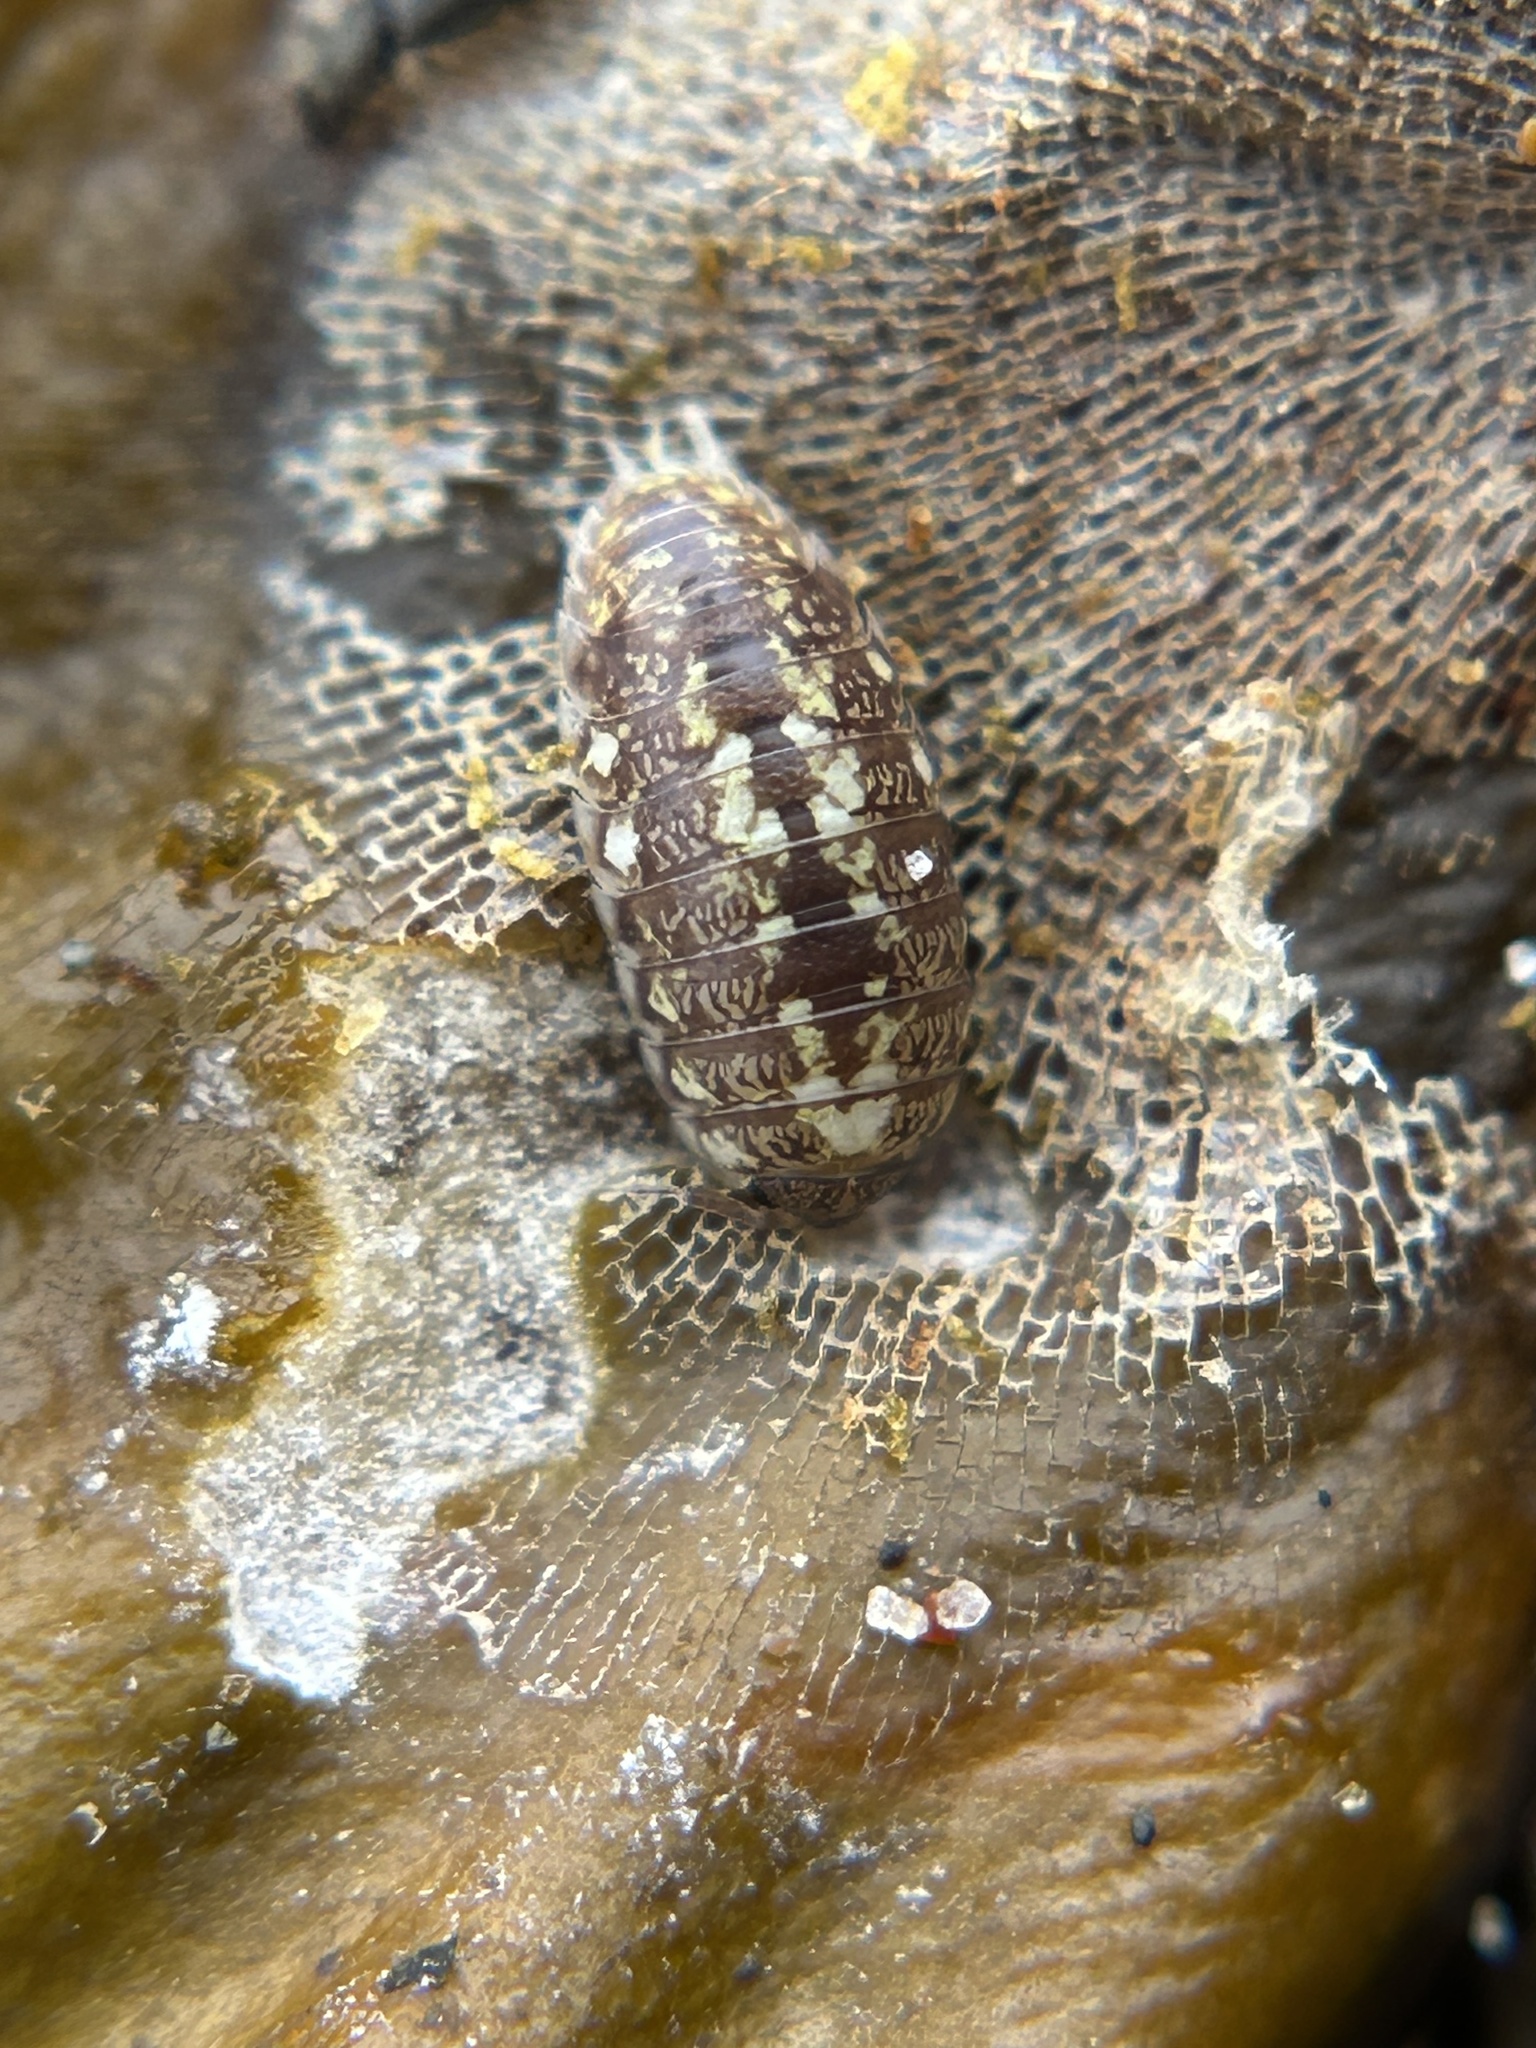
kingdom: Animalia
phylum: Arthropoda
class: Malacostraca
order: Isopoda
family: Alloniscidae
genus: Alloniscus
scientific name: Alloniscus perconvexus
